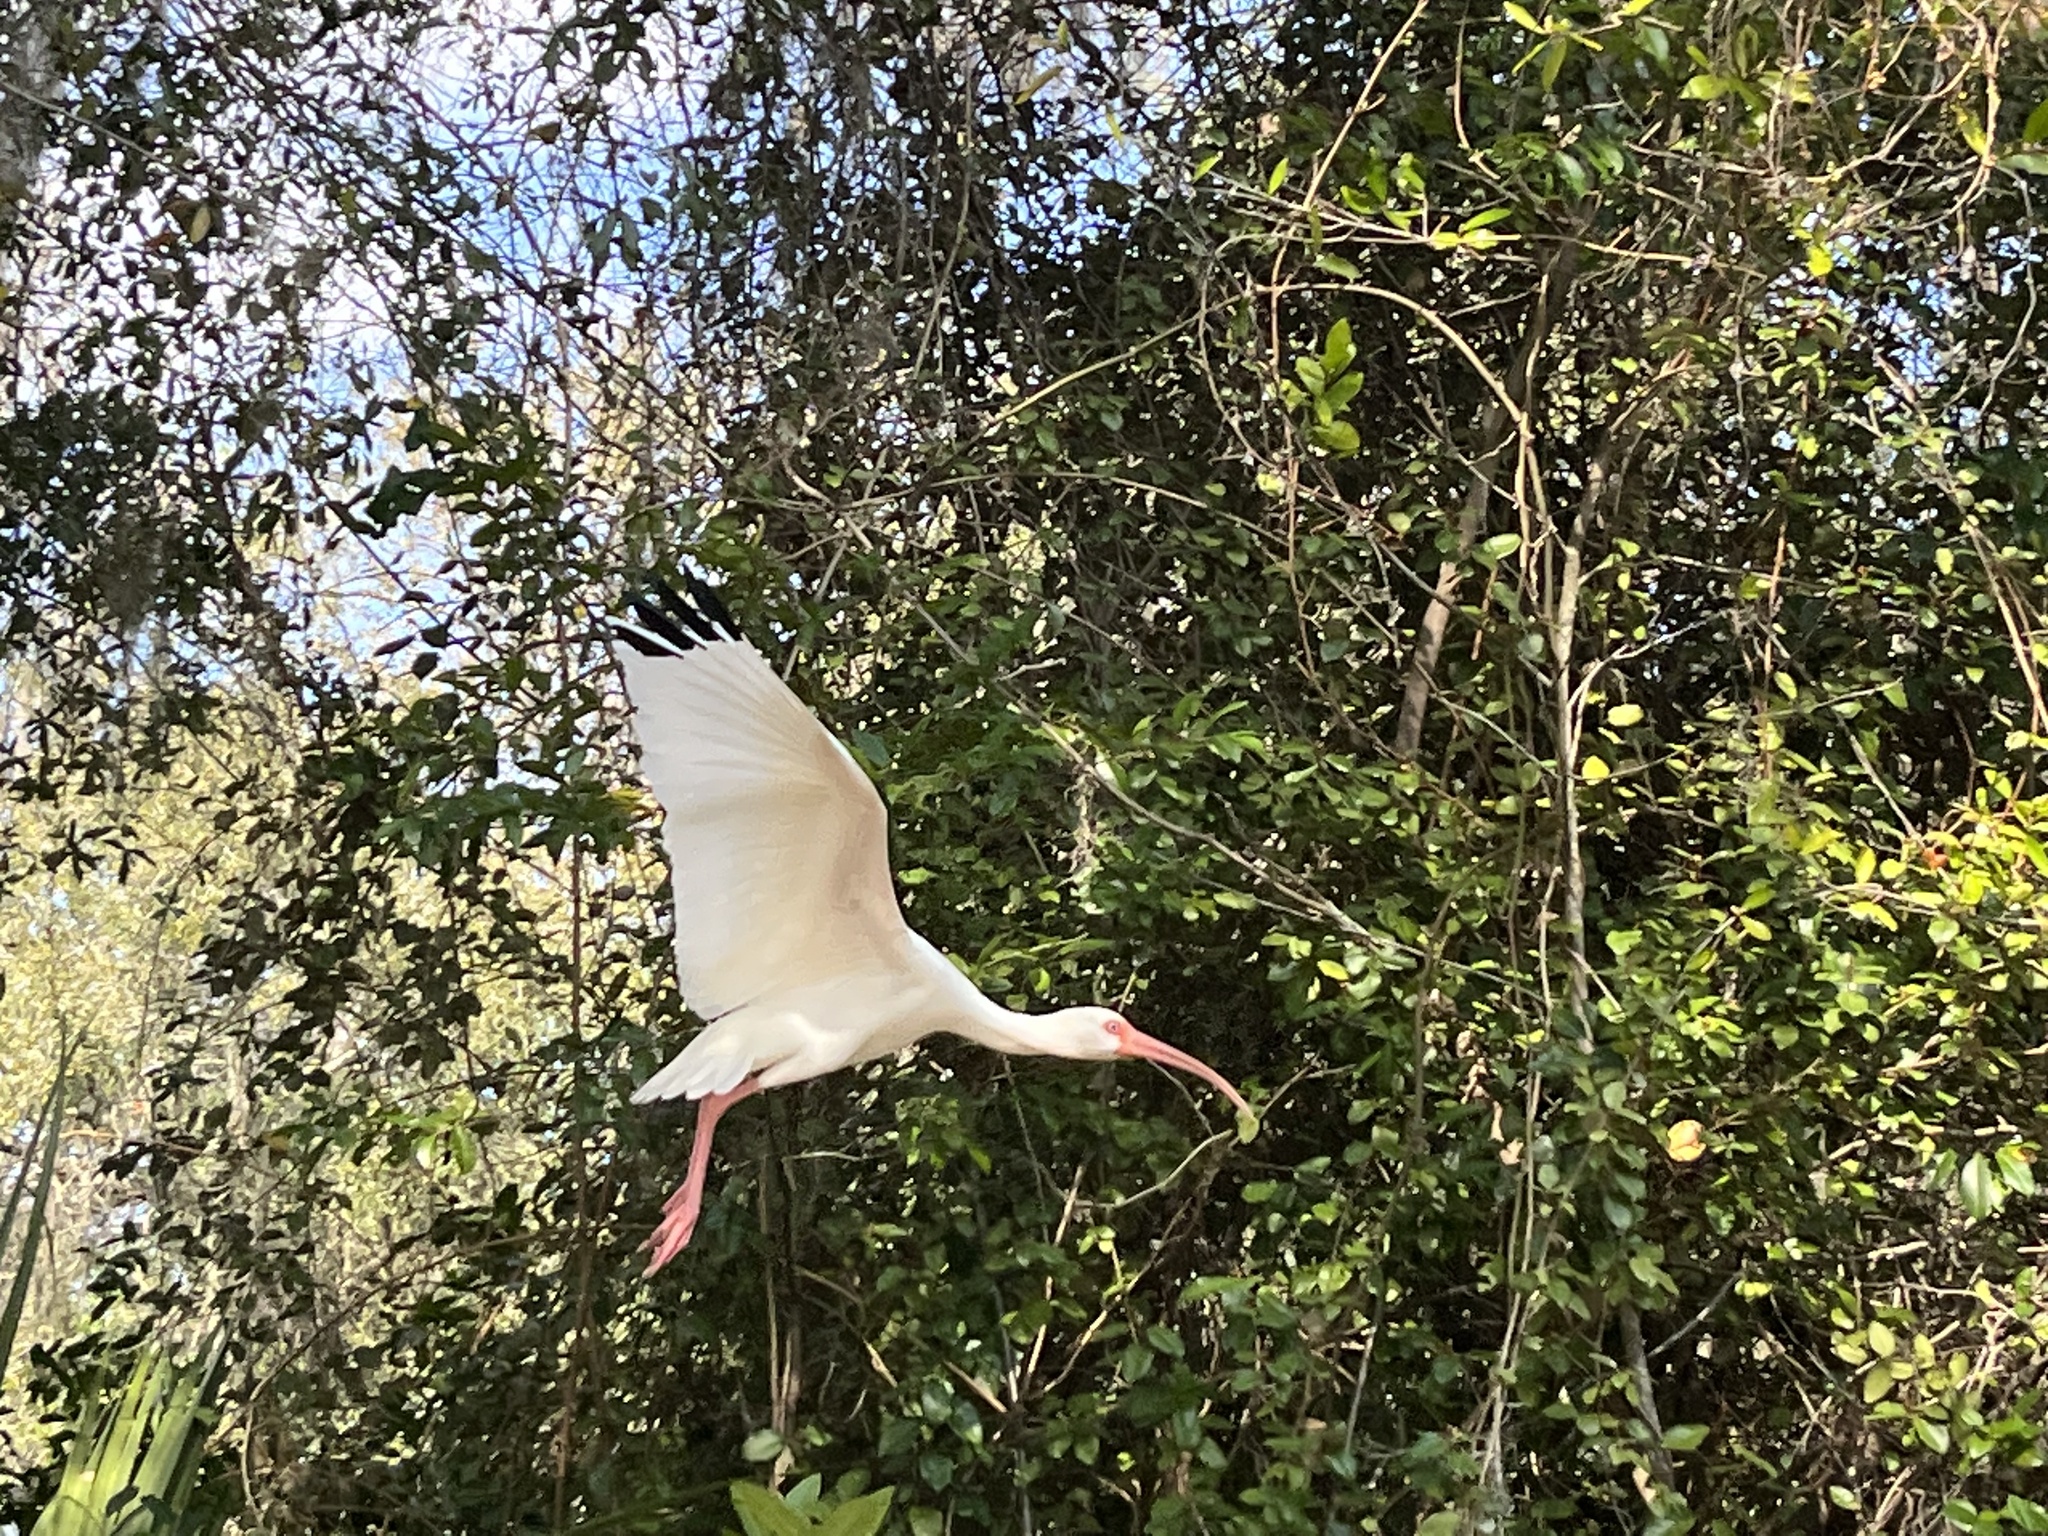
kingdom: Animalia
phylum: Chordata
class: Aves
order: Pelecaniformes
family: Threskiornithidae
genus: Eudocimus
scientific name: Eudocimus albus
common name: White ibis
